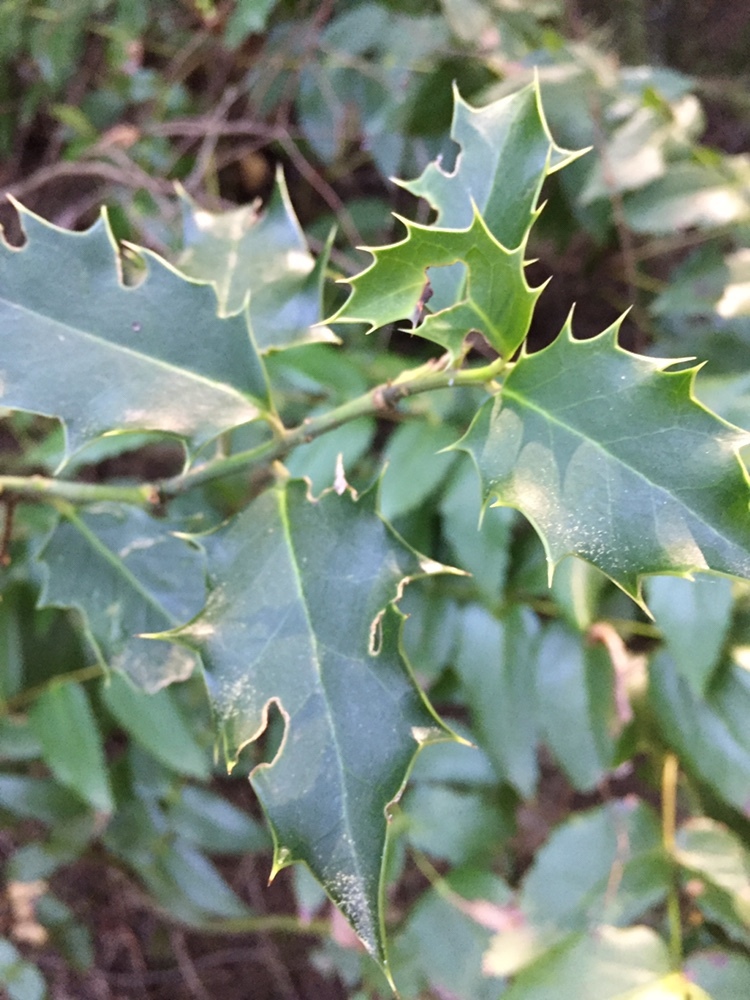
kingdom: Plantae
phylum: Tracheophyta
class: Magnoliopsida
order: Aquifoliales
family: Aquifoliaceae
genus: Ilex
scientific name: Ilex aquifolium
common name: English holly
